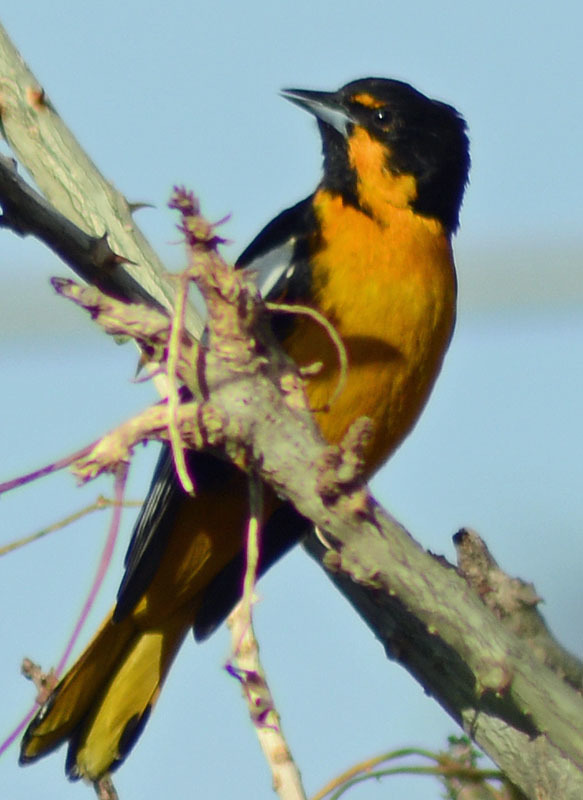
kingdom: Animalia
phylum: Chordata
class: Aves
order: Passeriformes
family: Icteridae
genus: Icterus
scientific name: Icterus abeillei
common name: Black-backed oriole
